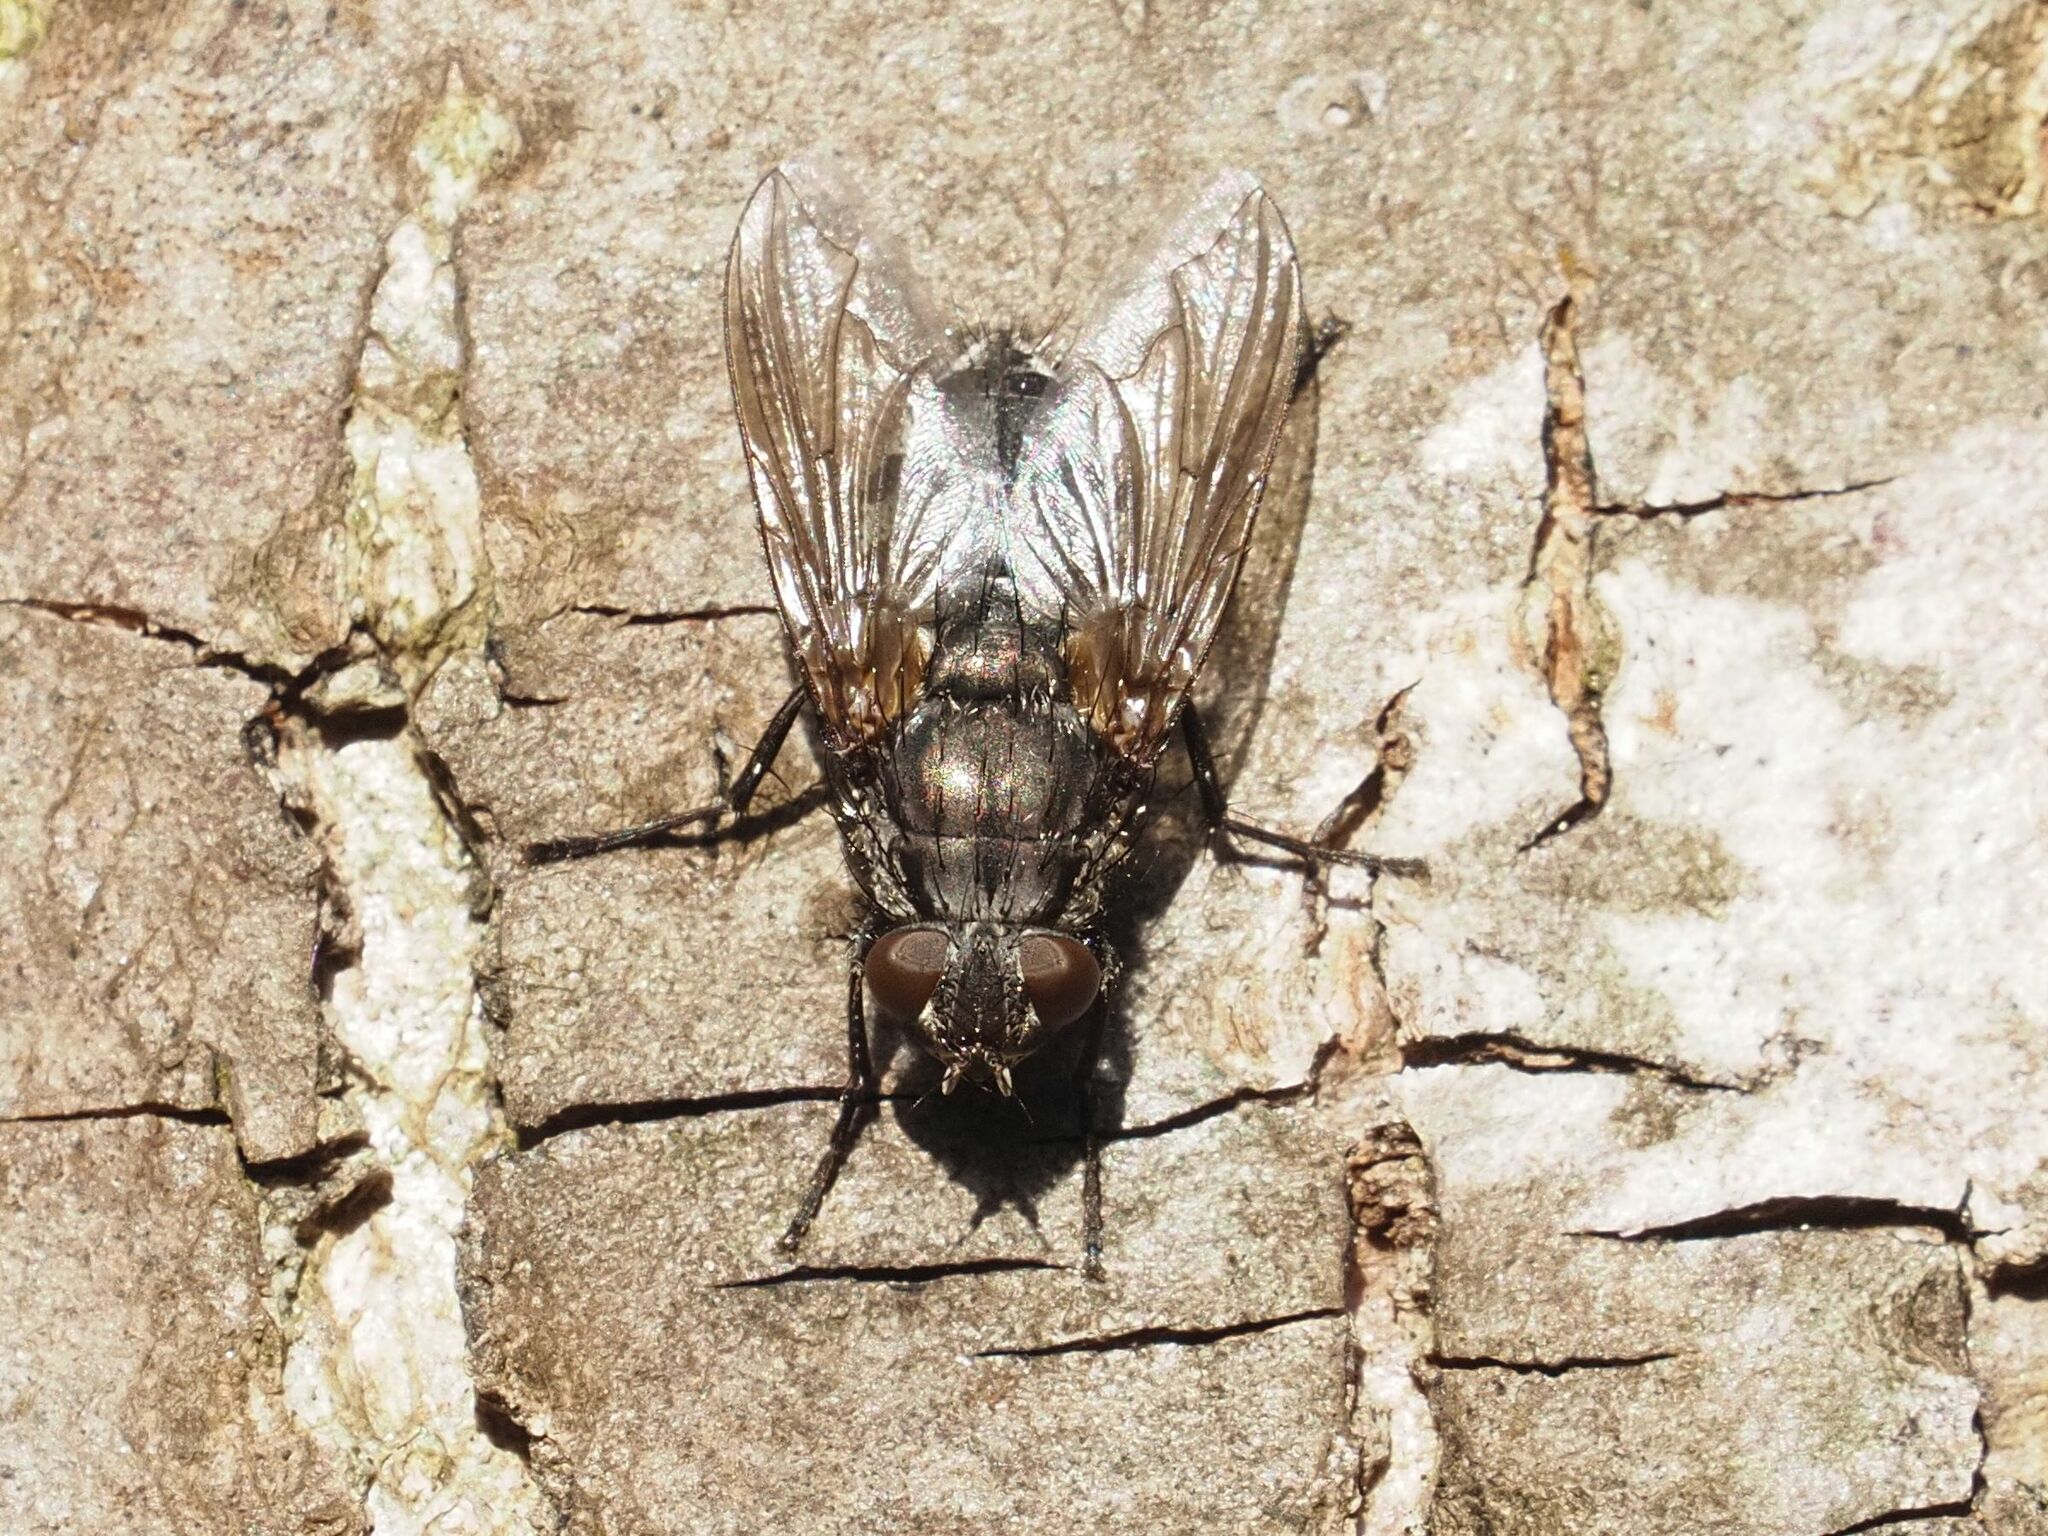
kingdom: Animalia
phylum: Arthropoda
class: Insecta
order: Diptera
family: Polleniidae
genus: Pollenia
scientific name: Pollenia vagabunda
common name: Vagabund cluster fly
